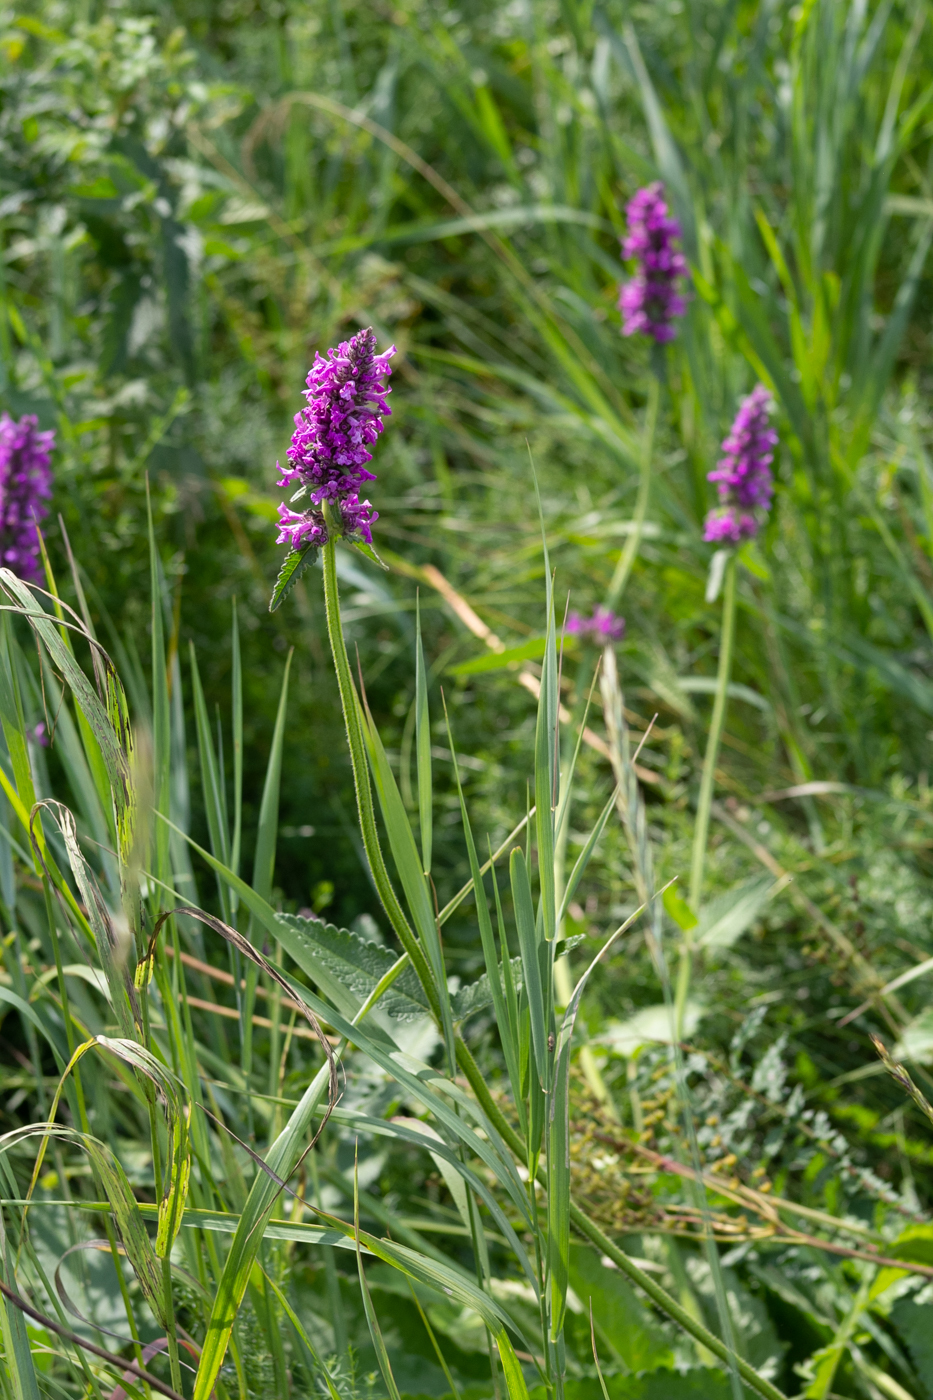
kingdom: Plantae
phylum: Tracheophyta
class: Magnoliopsida
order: Lamiales
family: Lamiaceae
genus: Betonica
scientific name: Betonica officinalis
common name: Bishop's-wort
